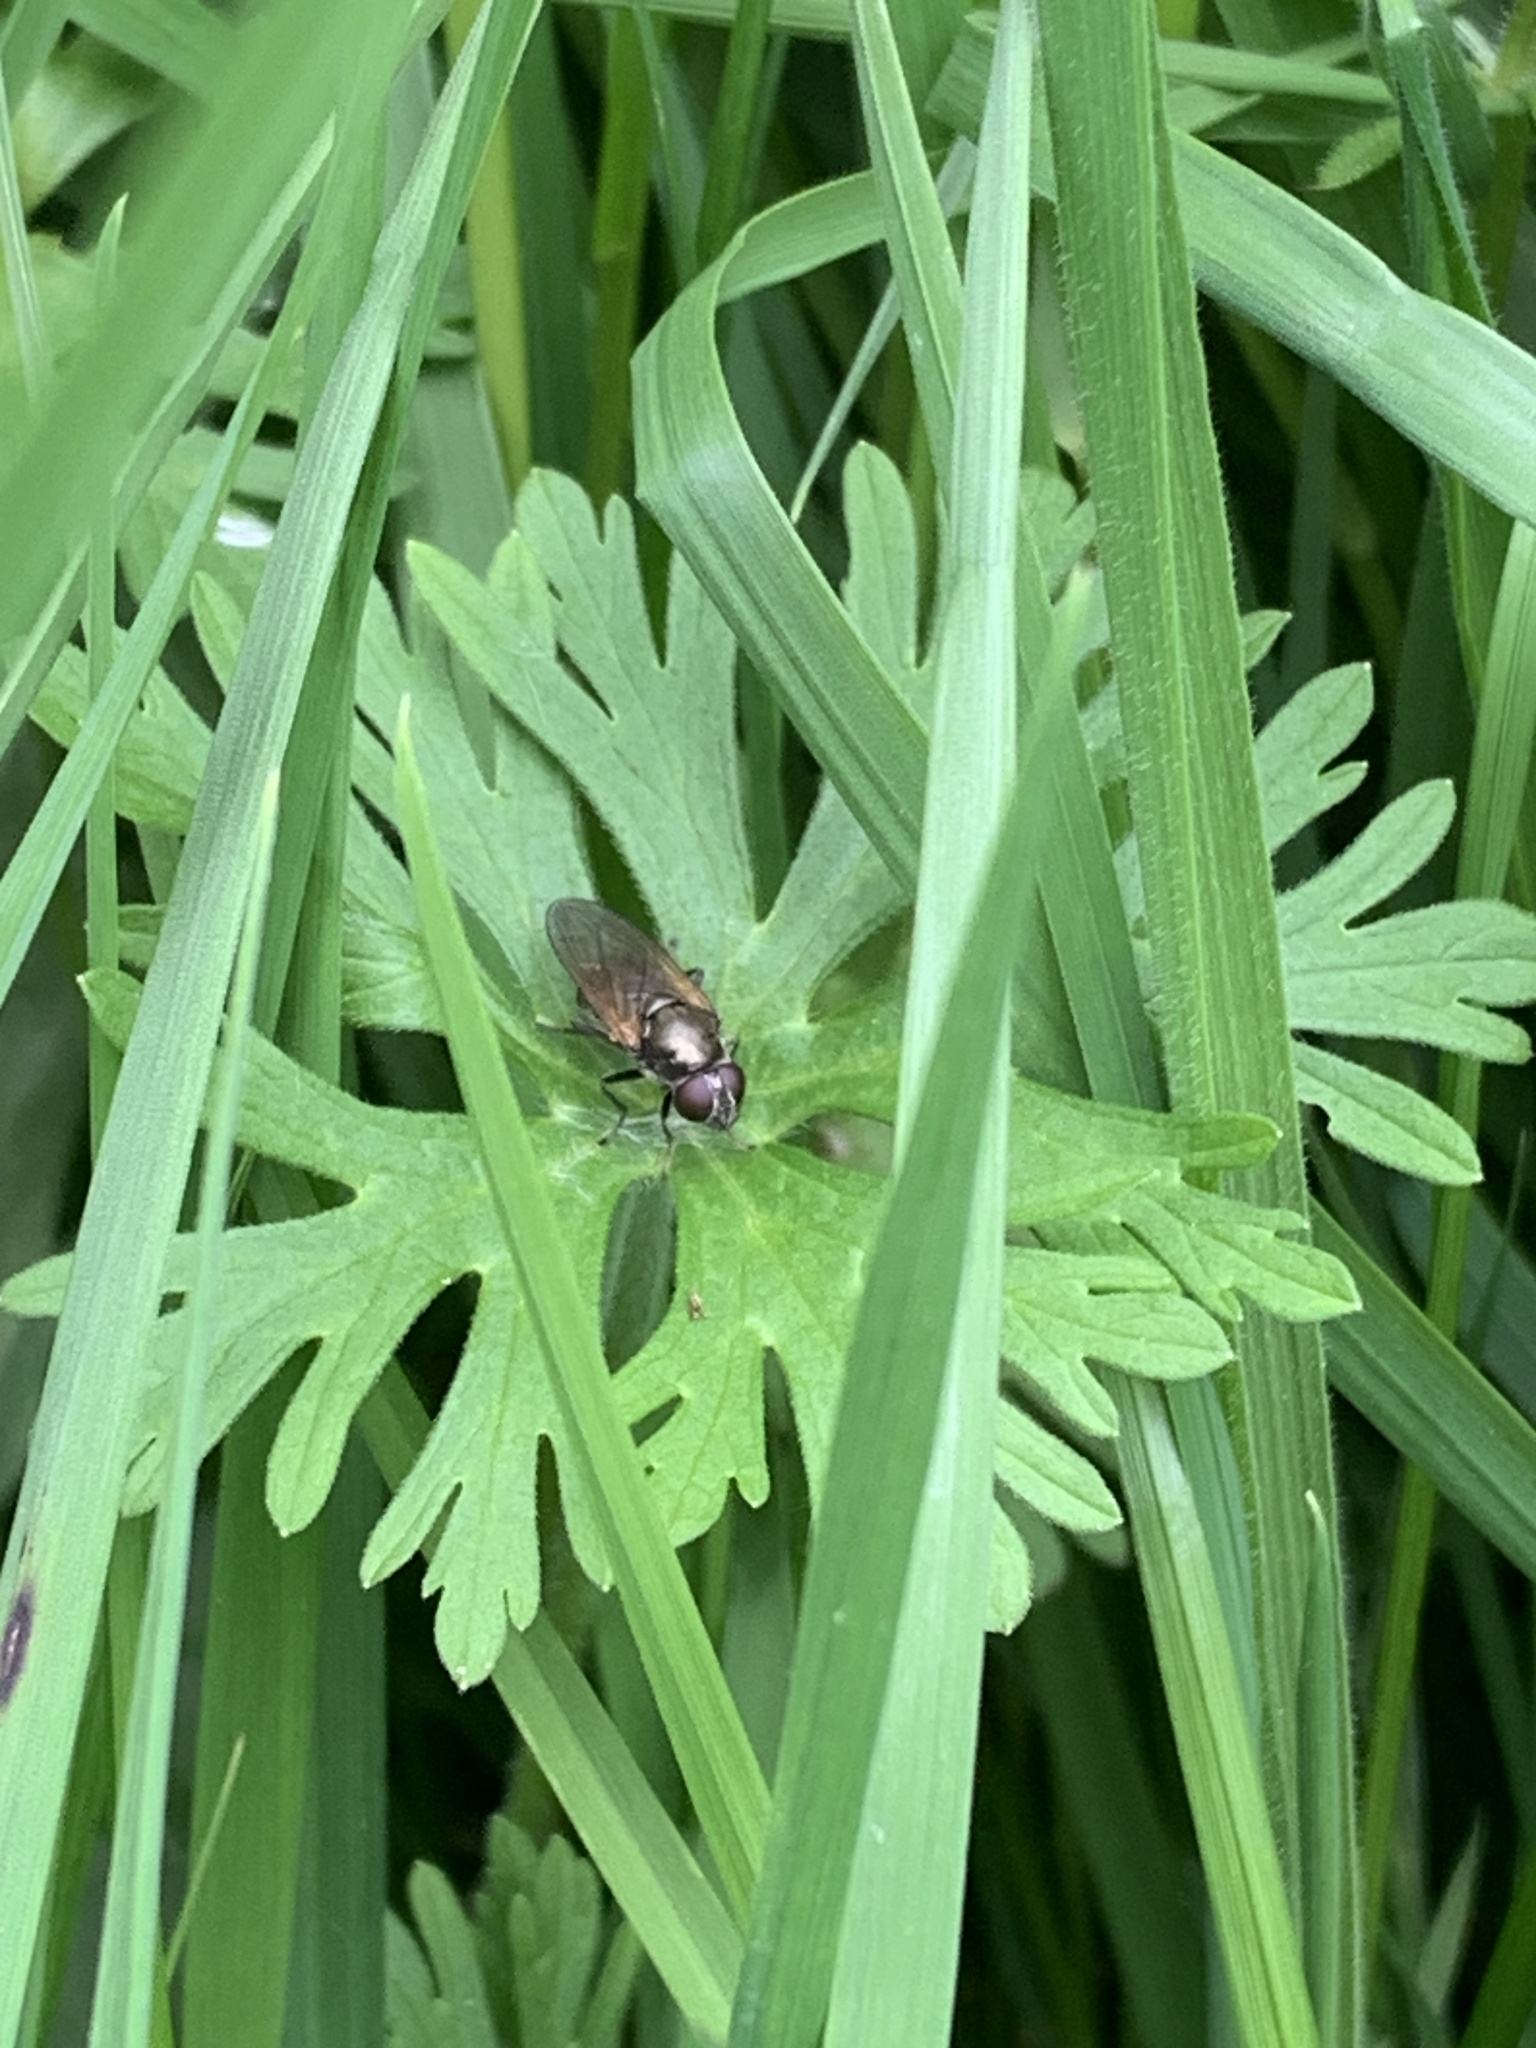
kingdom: Plantae
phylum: Tracheophyta
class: Magnoliopsida
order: Geraniales
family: Geraniaceae
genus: Geranium
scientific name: Geranium dissectum
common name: Cut-leaved crane's-bill
